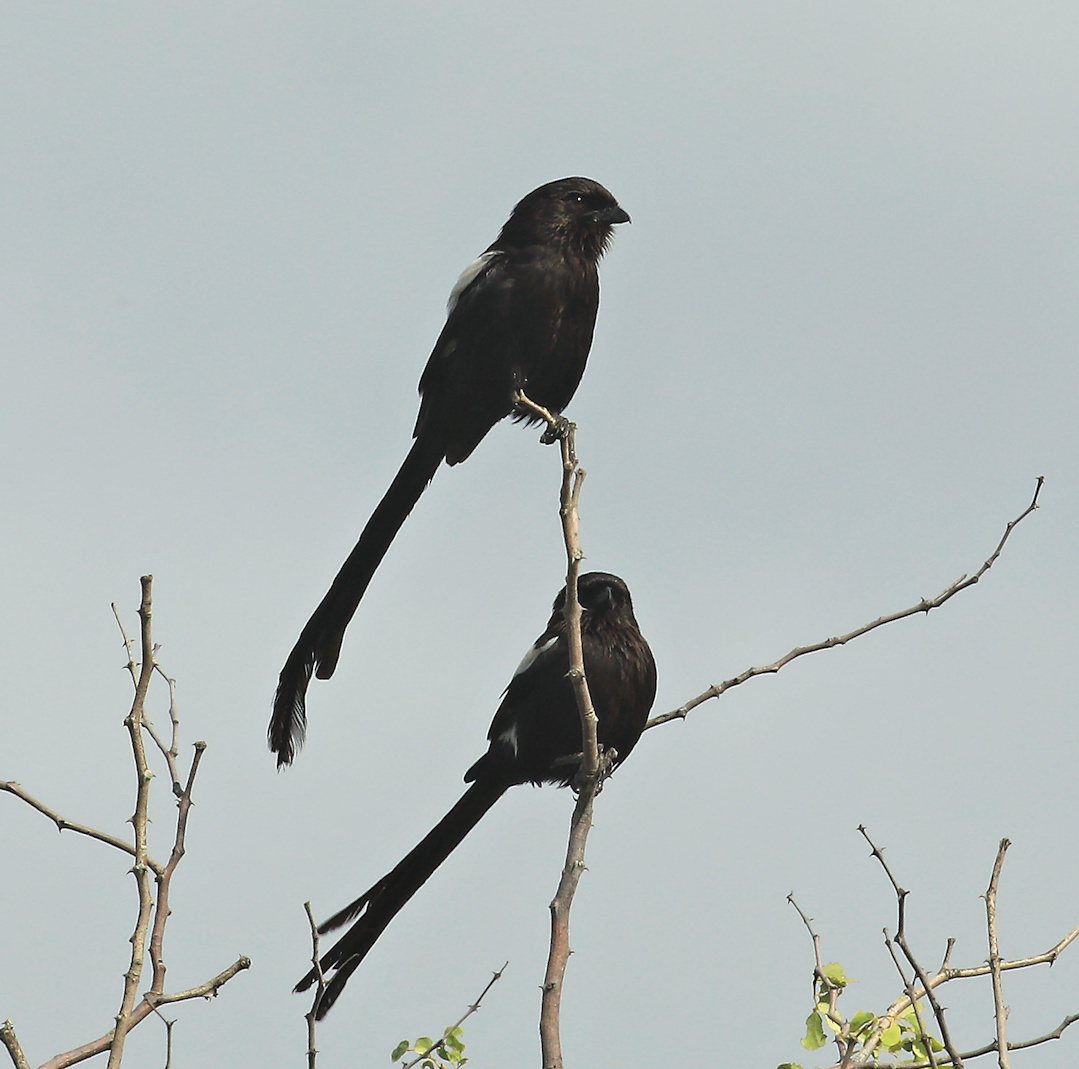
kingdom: Animalia
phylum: Chordata
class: Aves
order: Passeriformes
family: Laniidae
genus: Urolestes
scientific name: Urolestes melanoleucus
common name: Magpie shrike
